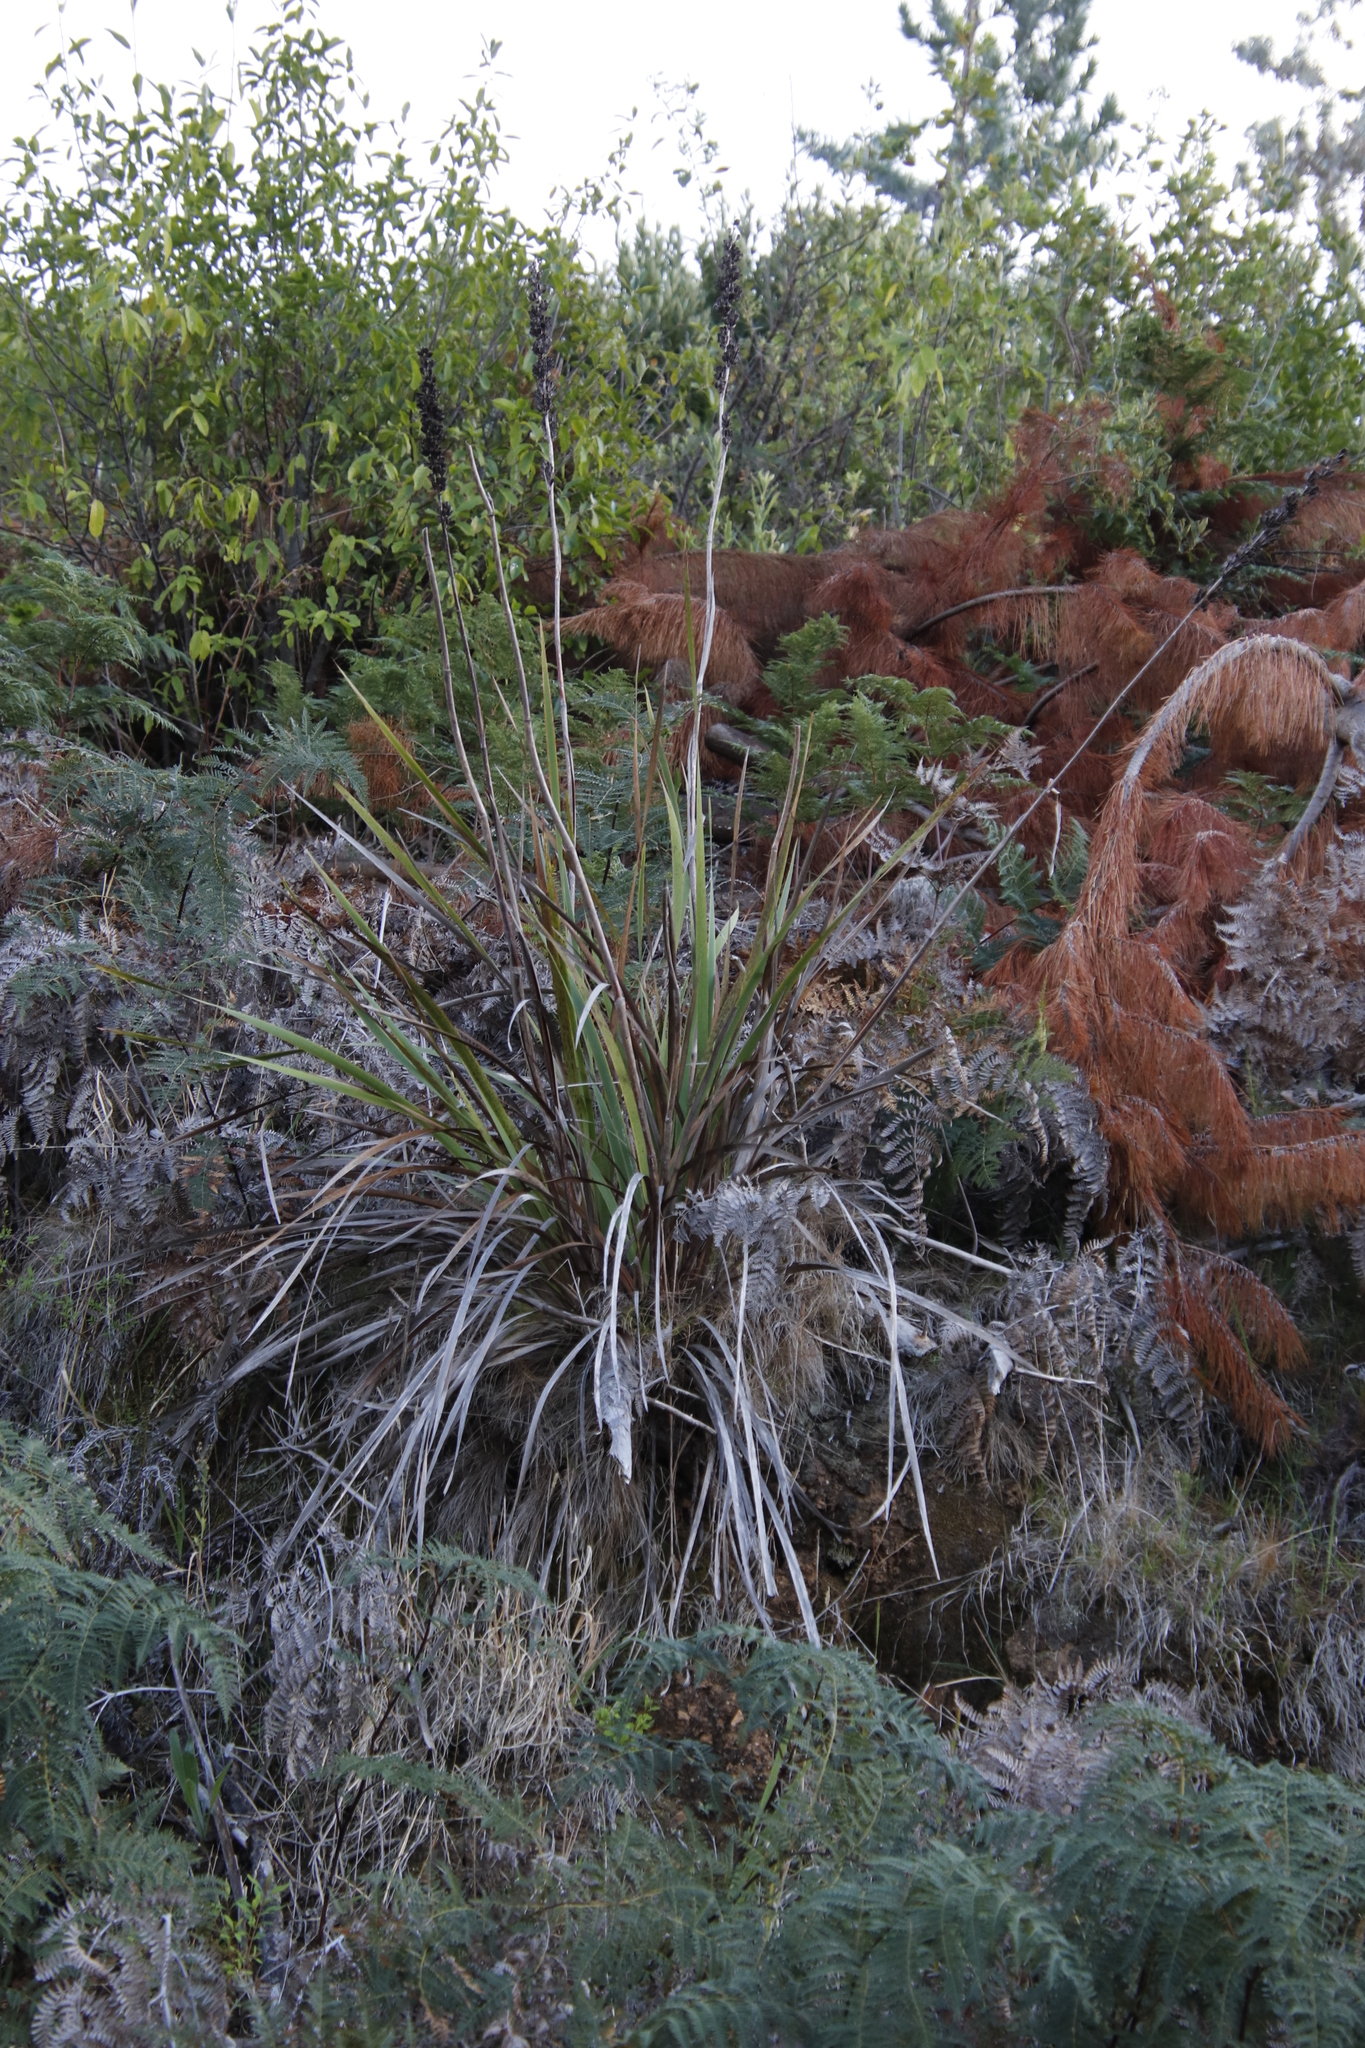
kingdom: Plantae
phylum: Tracheophyta
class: Liliopsida
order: Asparagales
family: Iridaceae
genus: Aristea
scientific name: Aristea capitata
